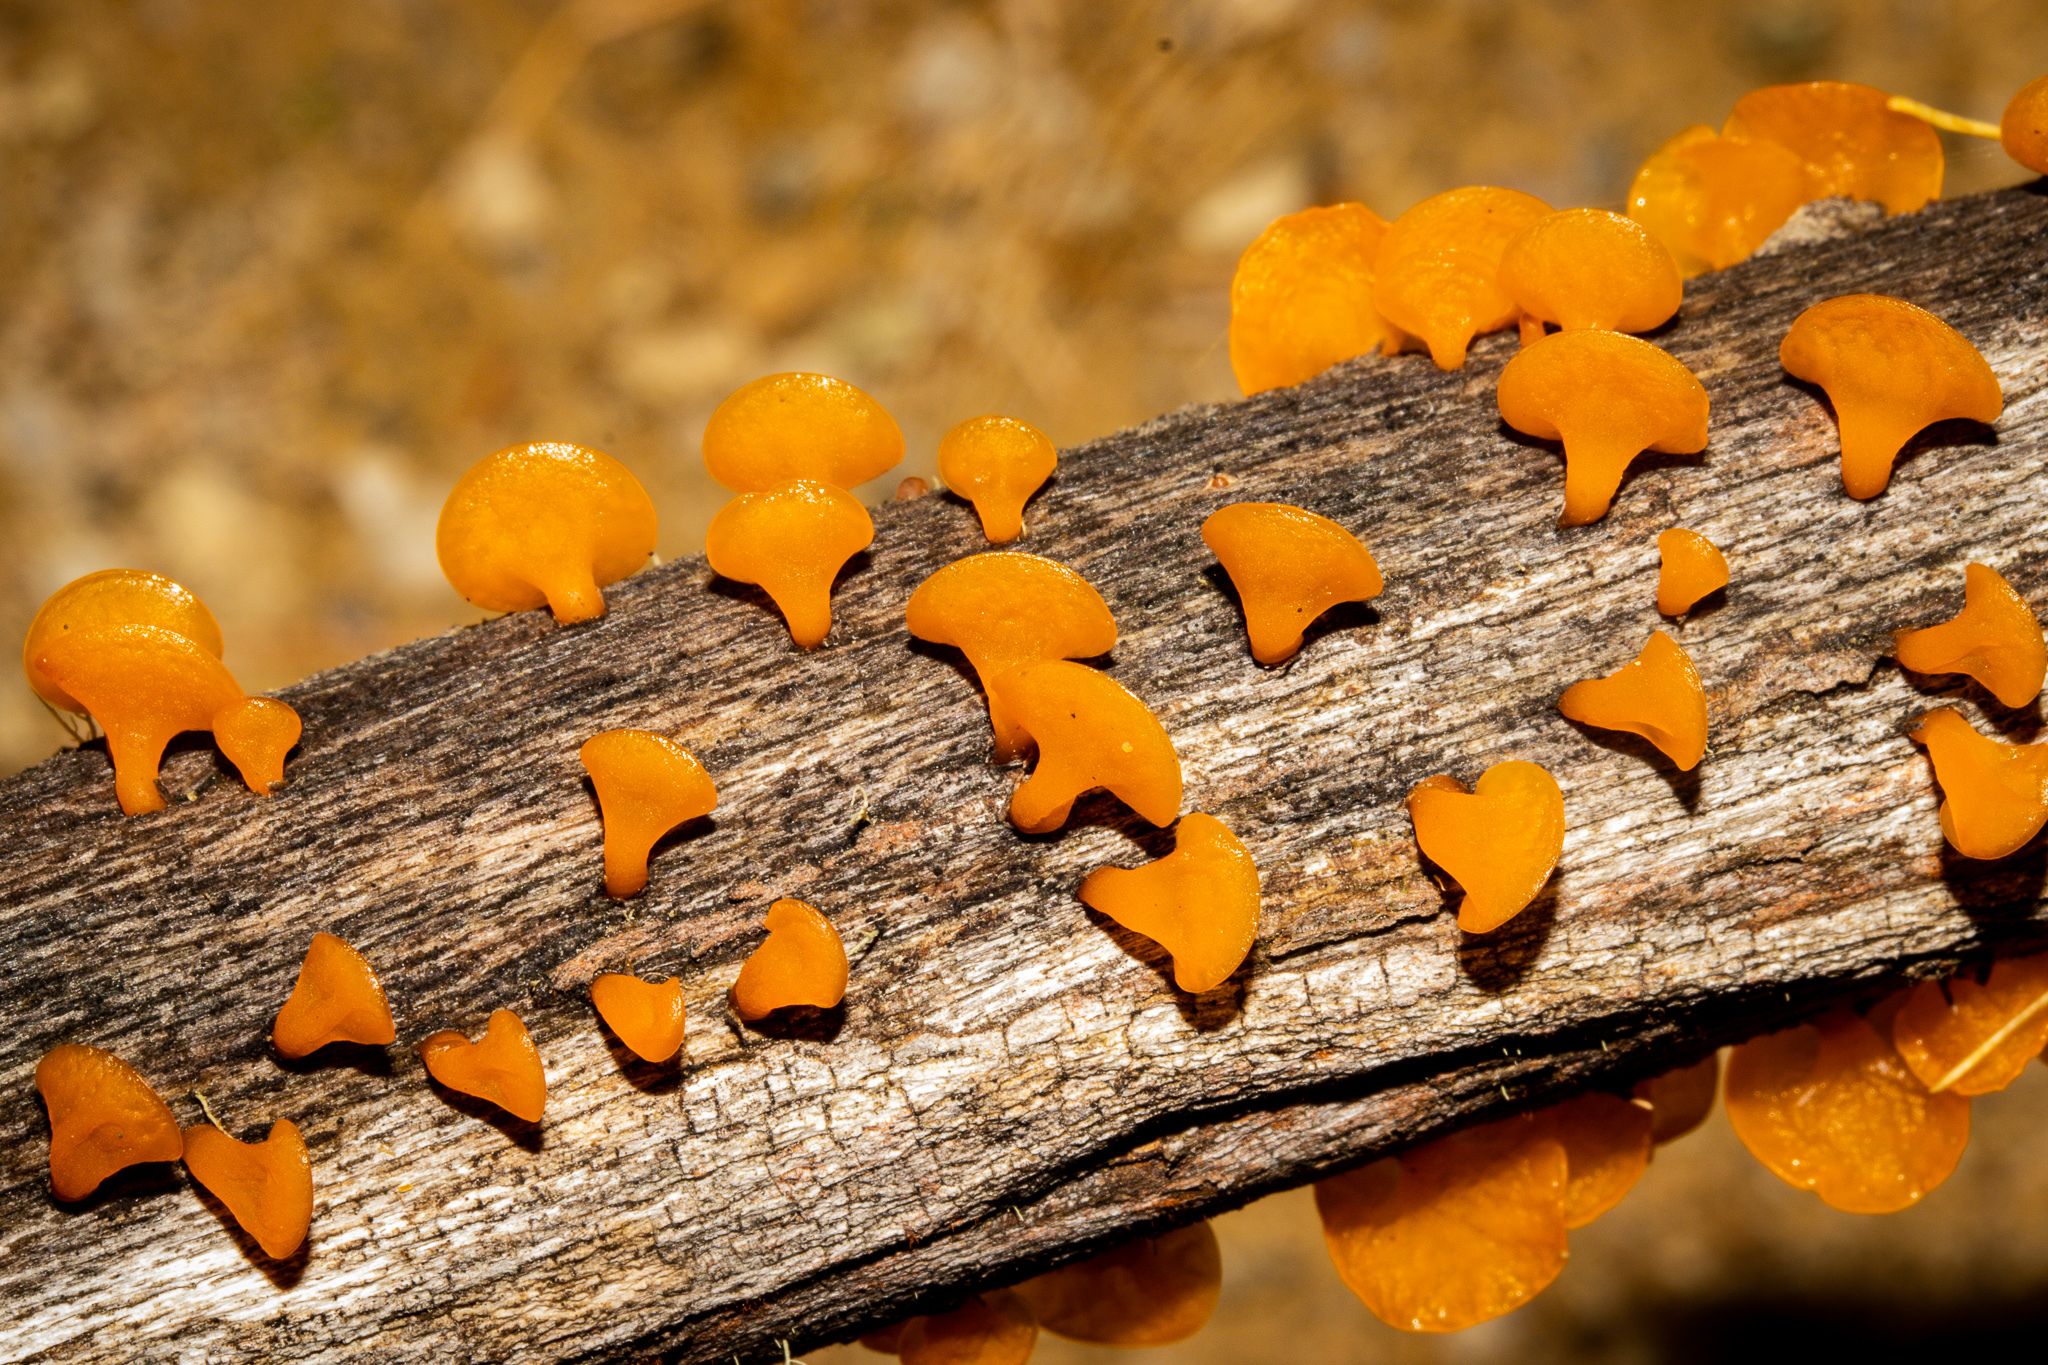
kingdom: Fungi
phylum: Basidiomycota
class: Dacrymycetes
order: Dacrymycetales
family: Dacrymycetaceae
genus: Heterotextus
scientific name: Heterotextus miltinus
